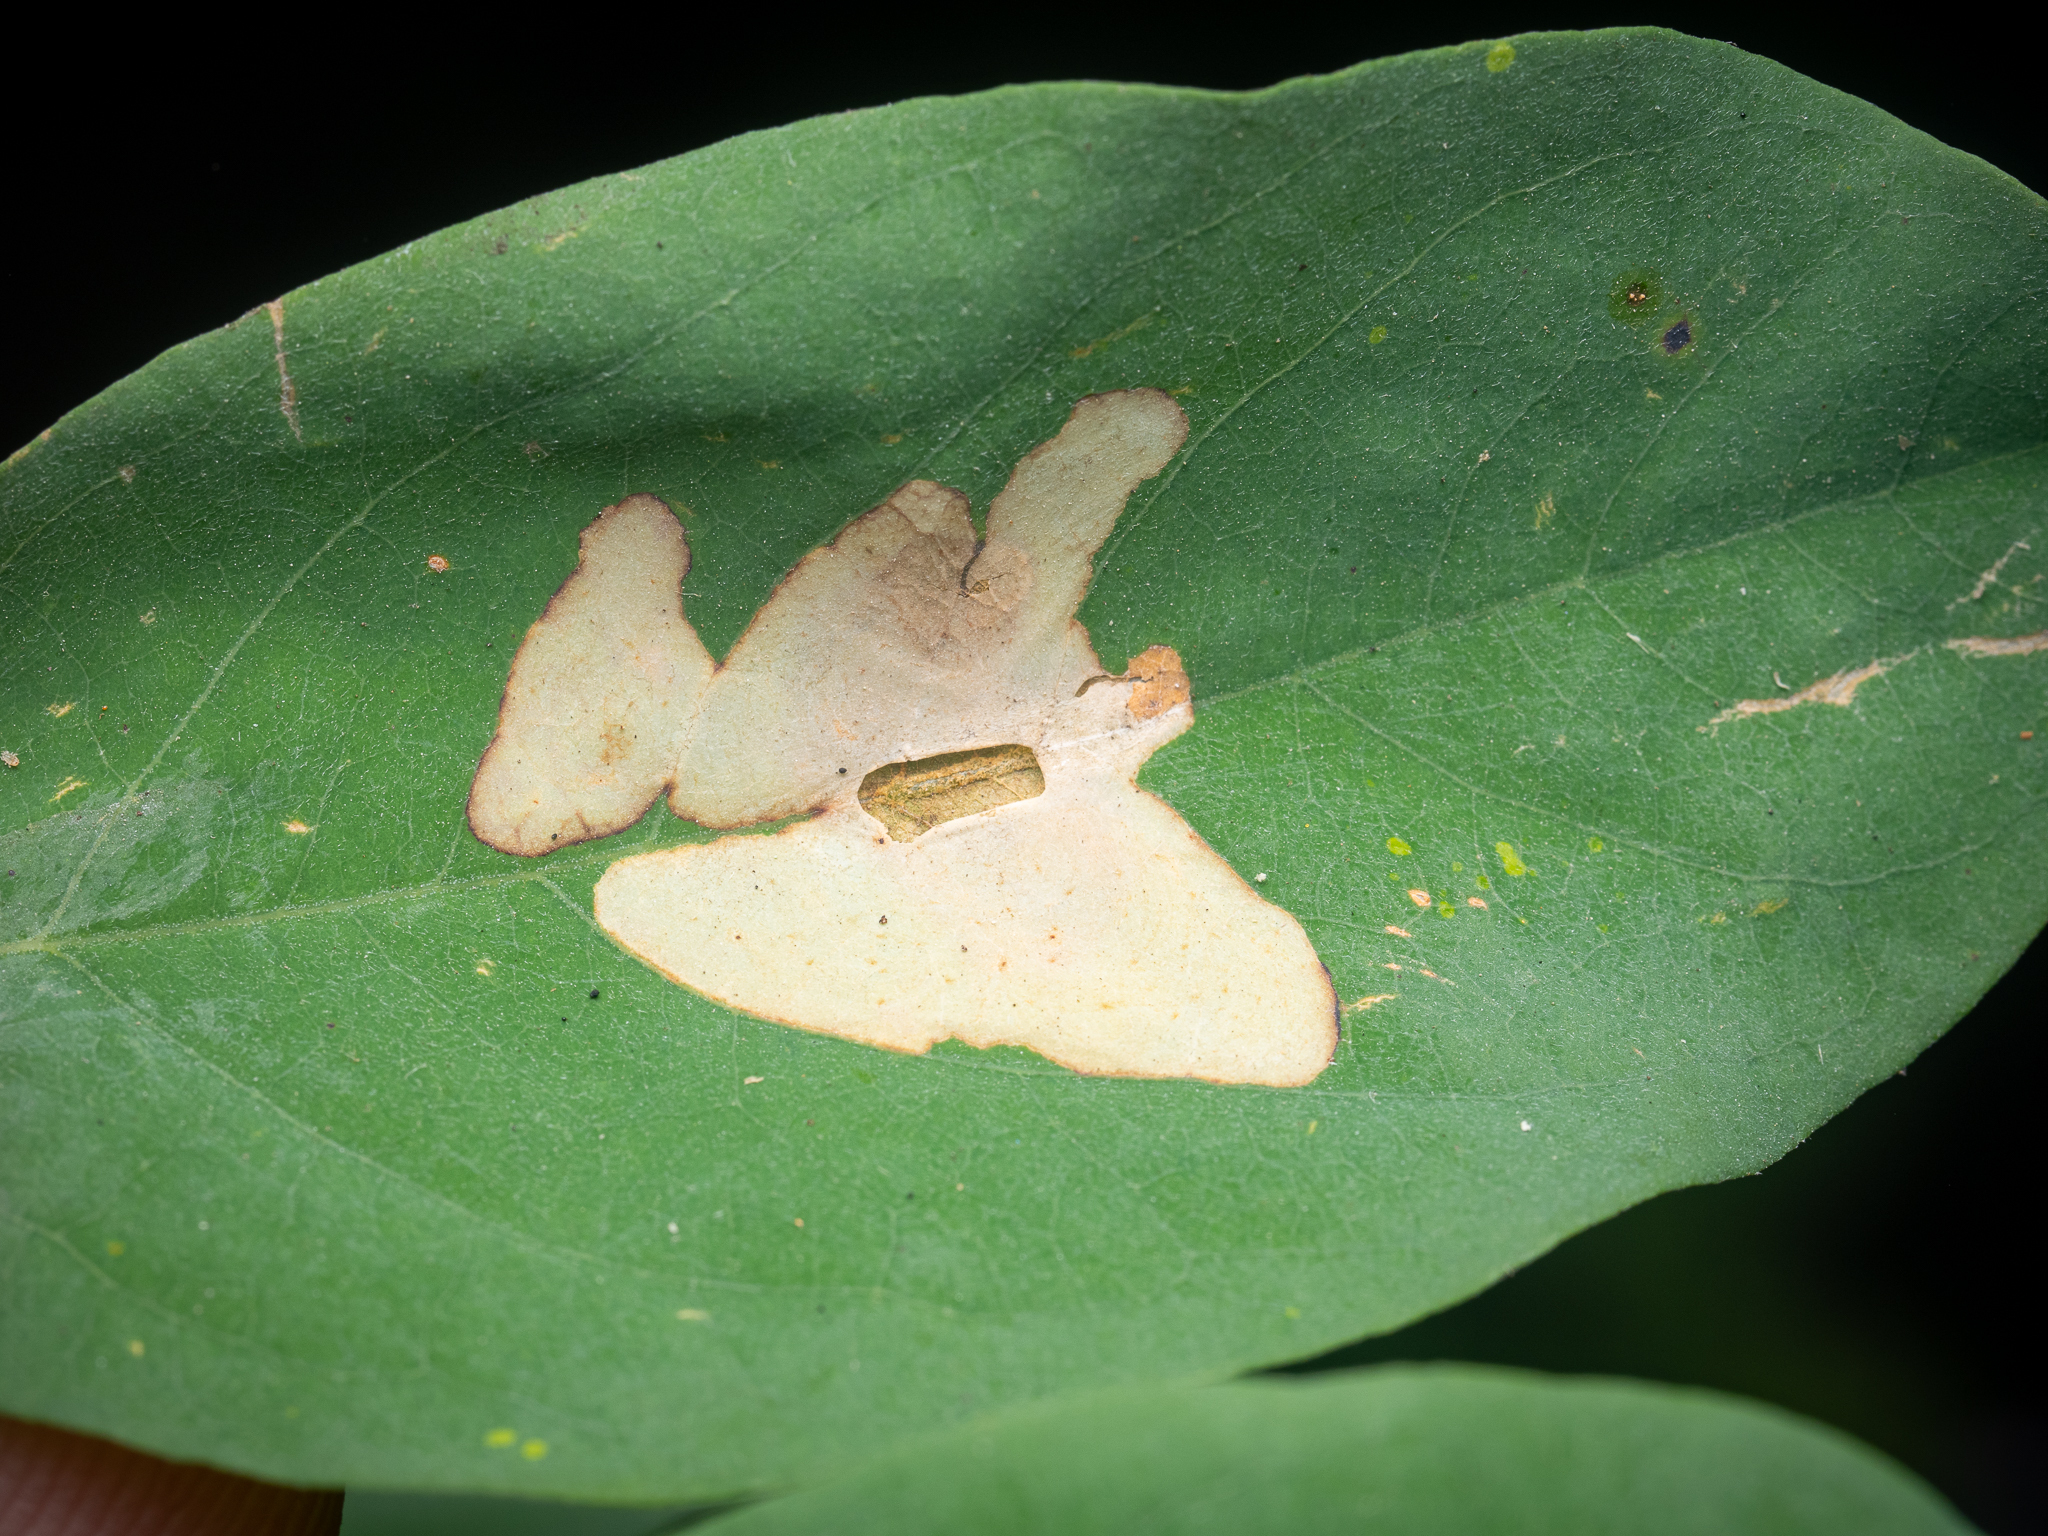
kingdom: Animalia
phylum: Arthropoda
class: Insecta
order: Lepidoptera
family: Gracillariidae
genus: Parectopa
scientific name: Parectopa robiniella
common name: Locust digitate leafminer
